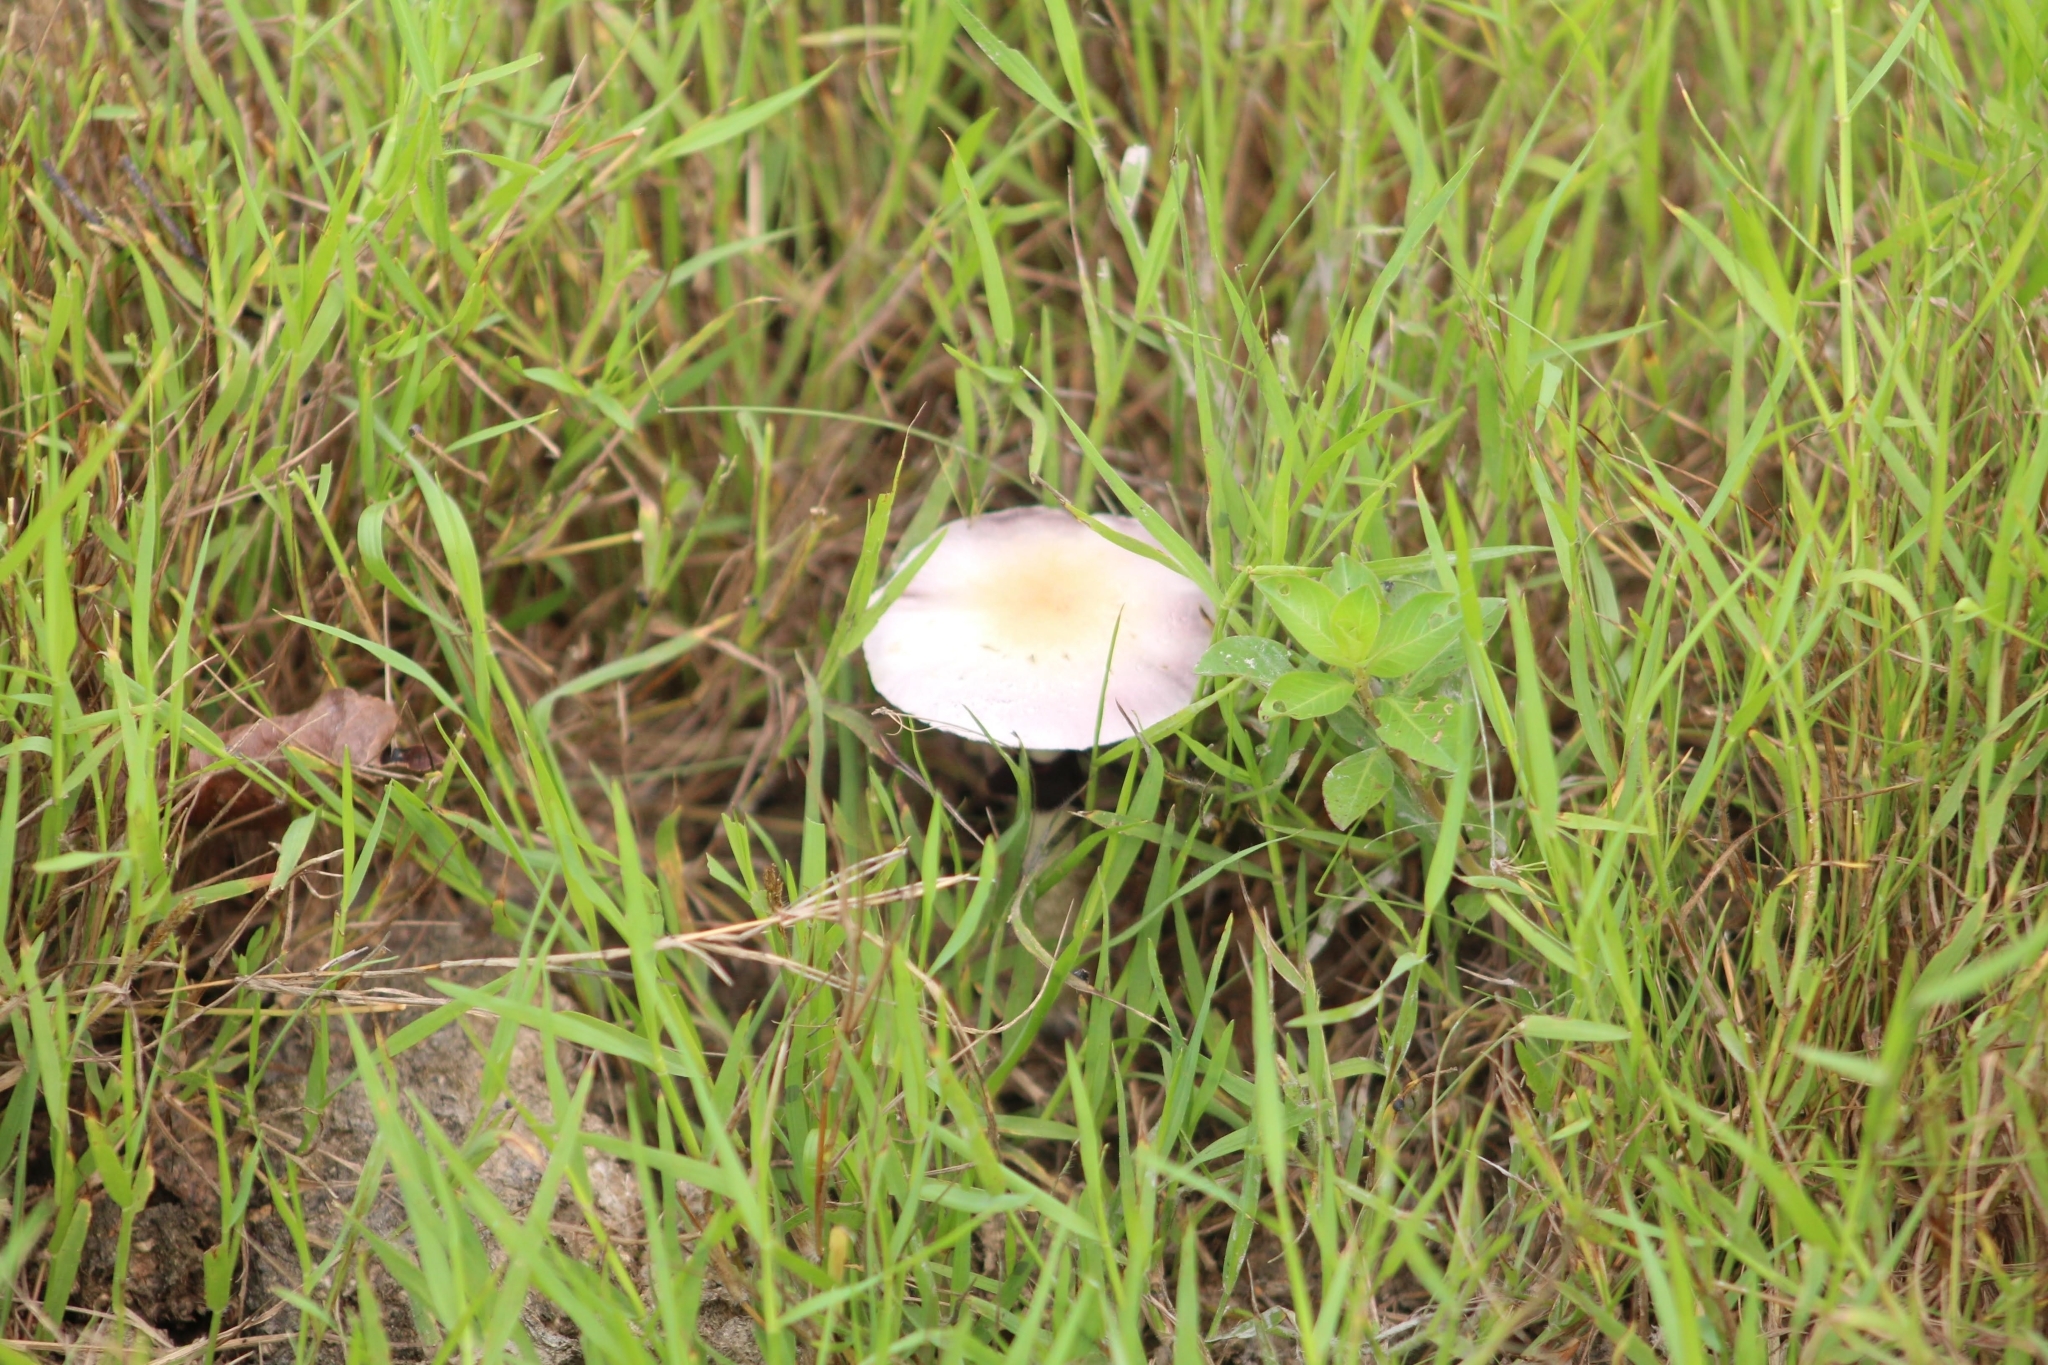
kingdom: Fungi
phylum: Basidiomycota
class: Agaricomycetes
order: Agaricales
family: Hymenogastraceae
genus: Psilocybe
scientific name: Psilocybe cubensis
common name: Golden brownie
